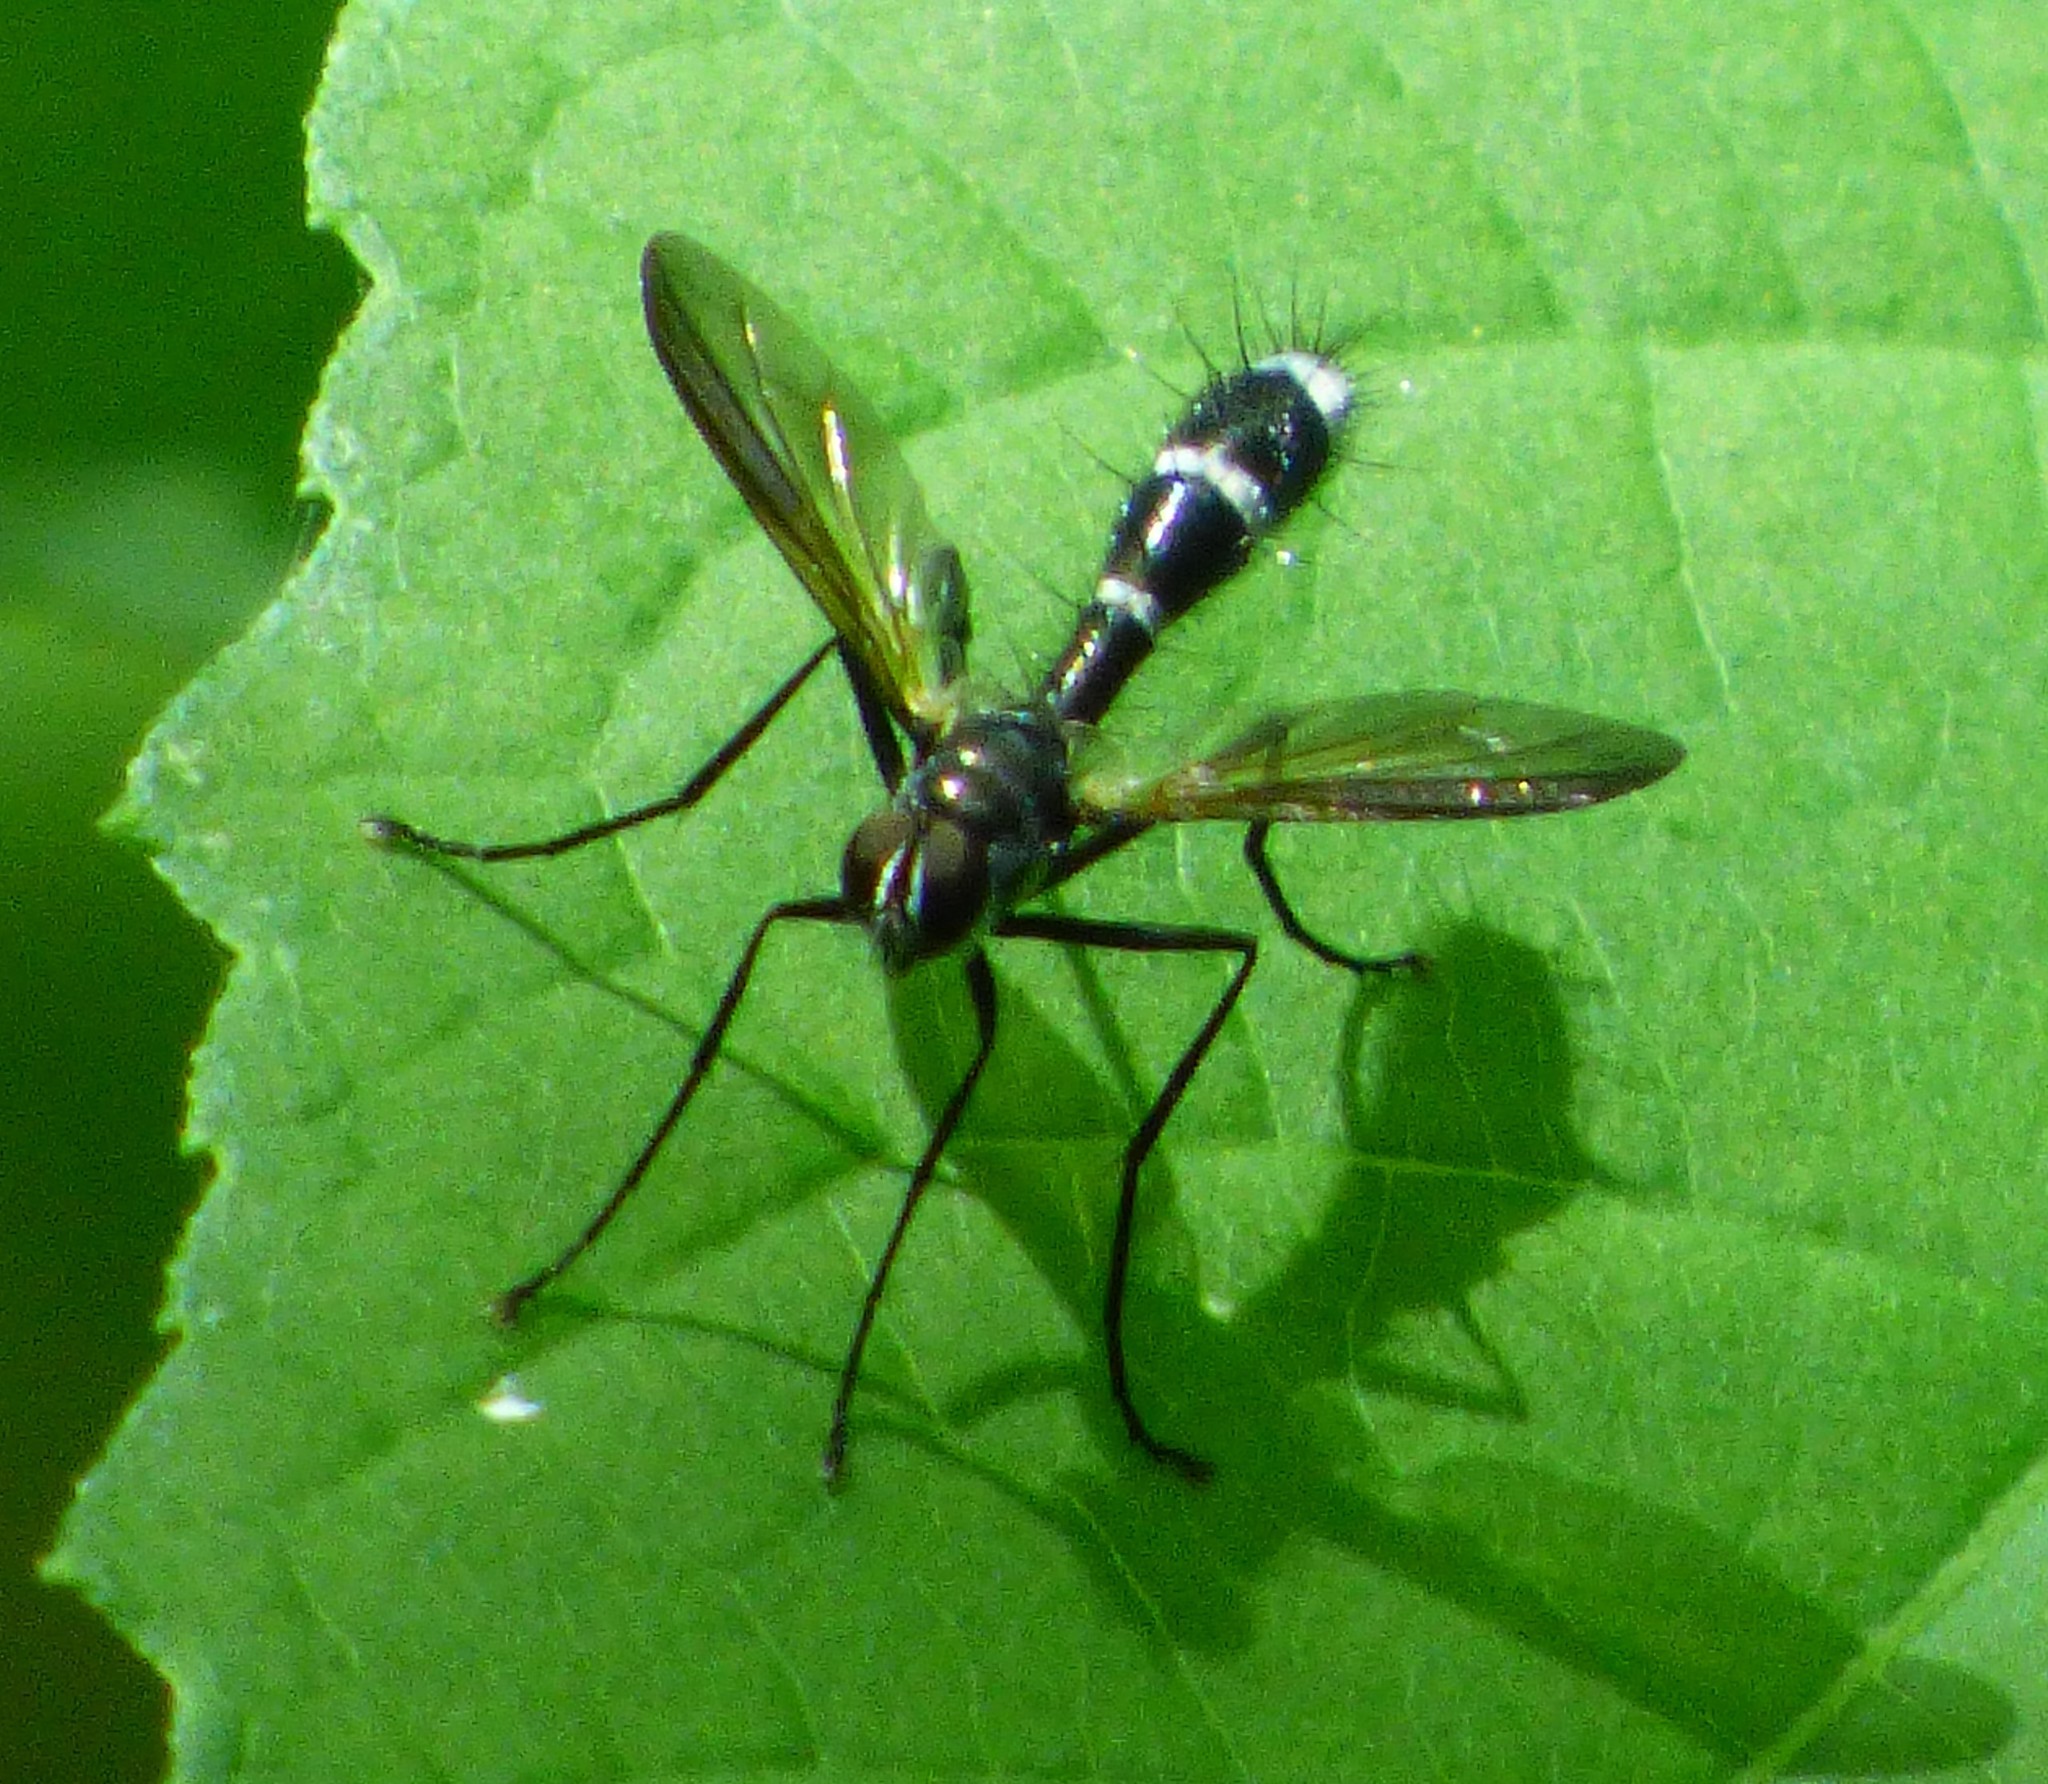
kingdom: Animalia
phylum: Arthropoda
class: Insecta
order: Diptera
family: Tachinidae
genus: Cordyligaster
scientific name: Cordyligaster septentrionalis
